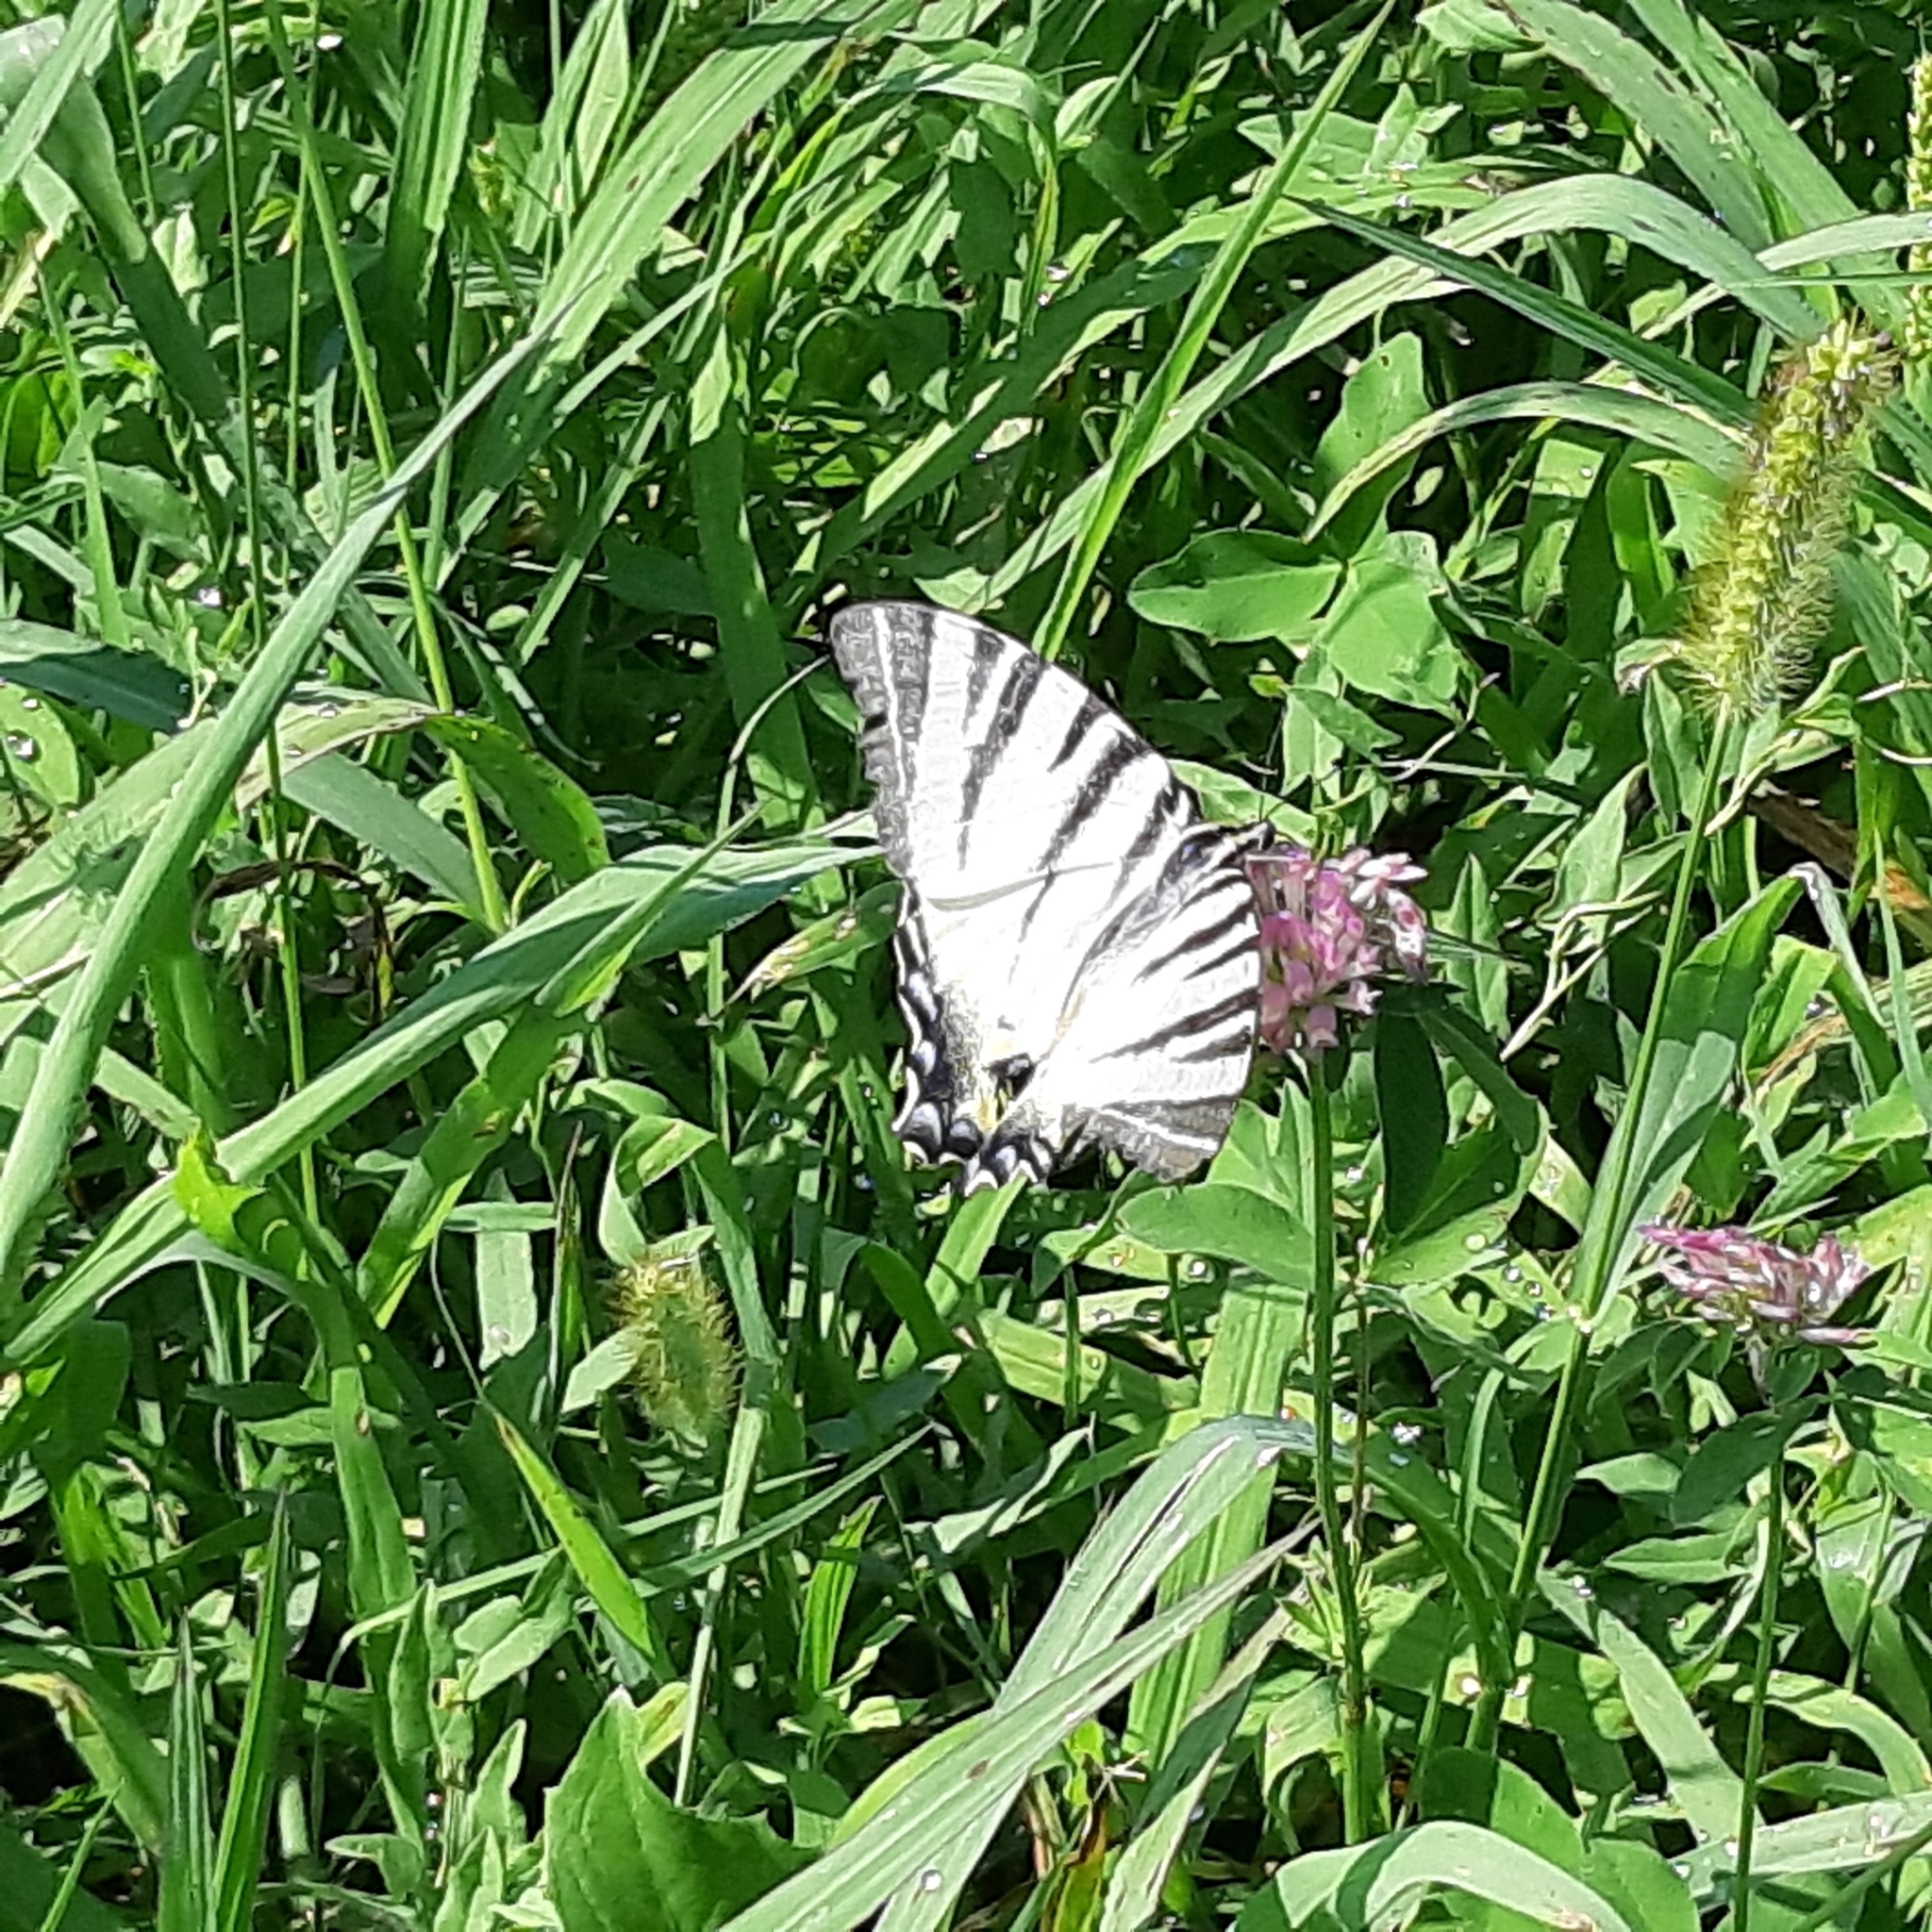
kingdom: Animalia
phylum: Arthropoda
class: Insecta
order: Lepidoptera
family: Papilionidae
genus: Iphiclides
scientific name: Iphiclides podalirius
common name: Scarce swallowtail
